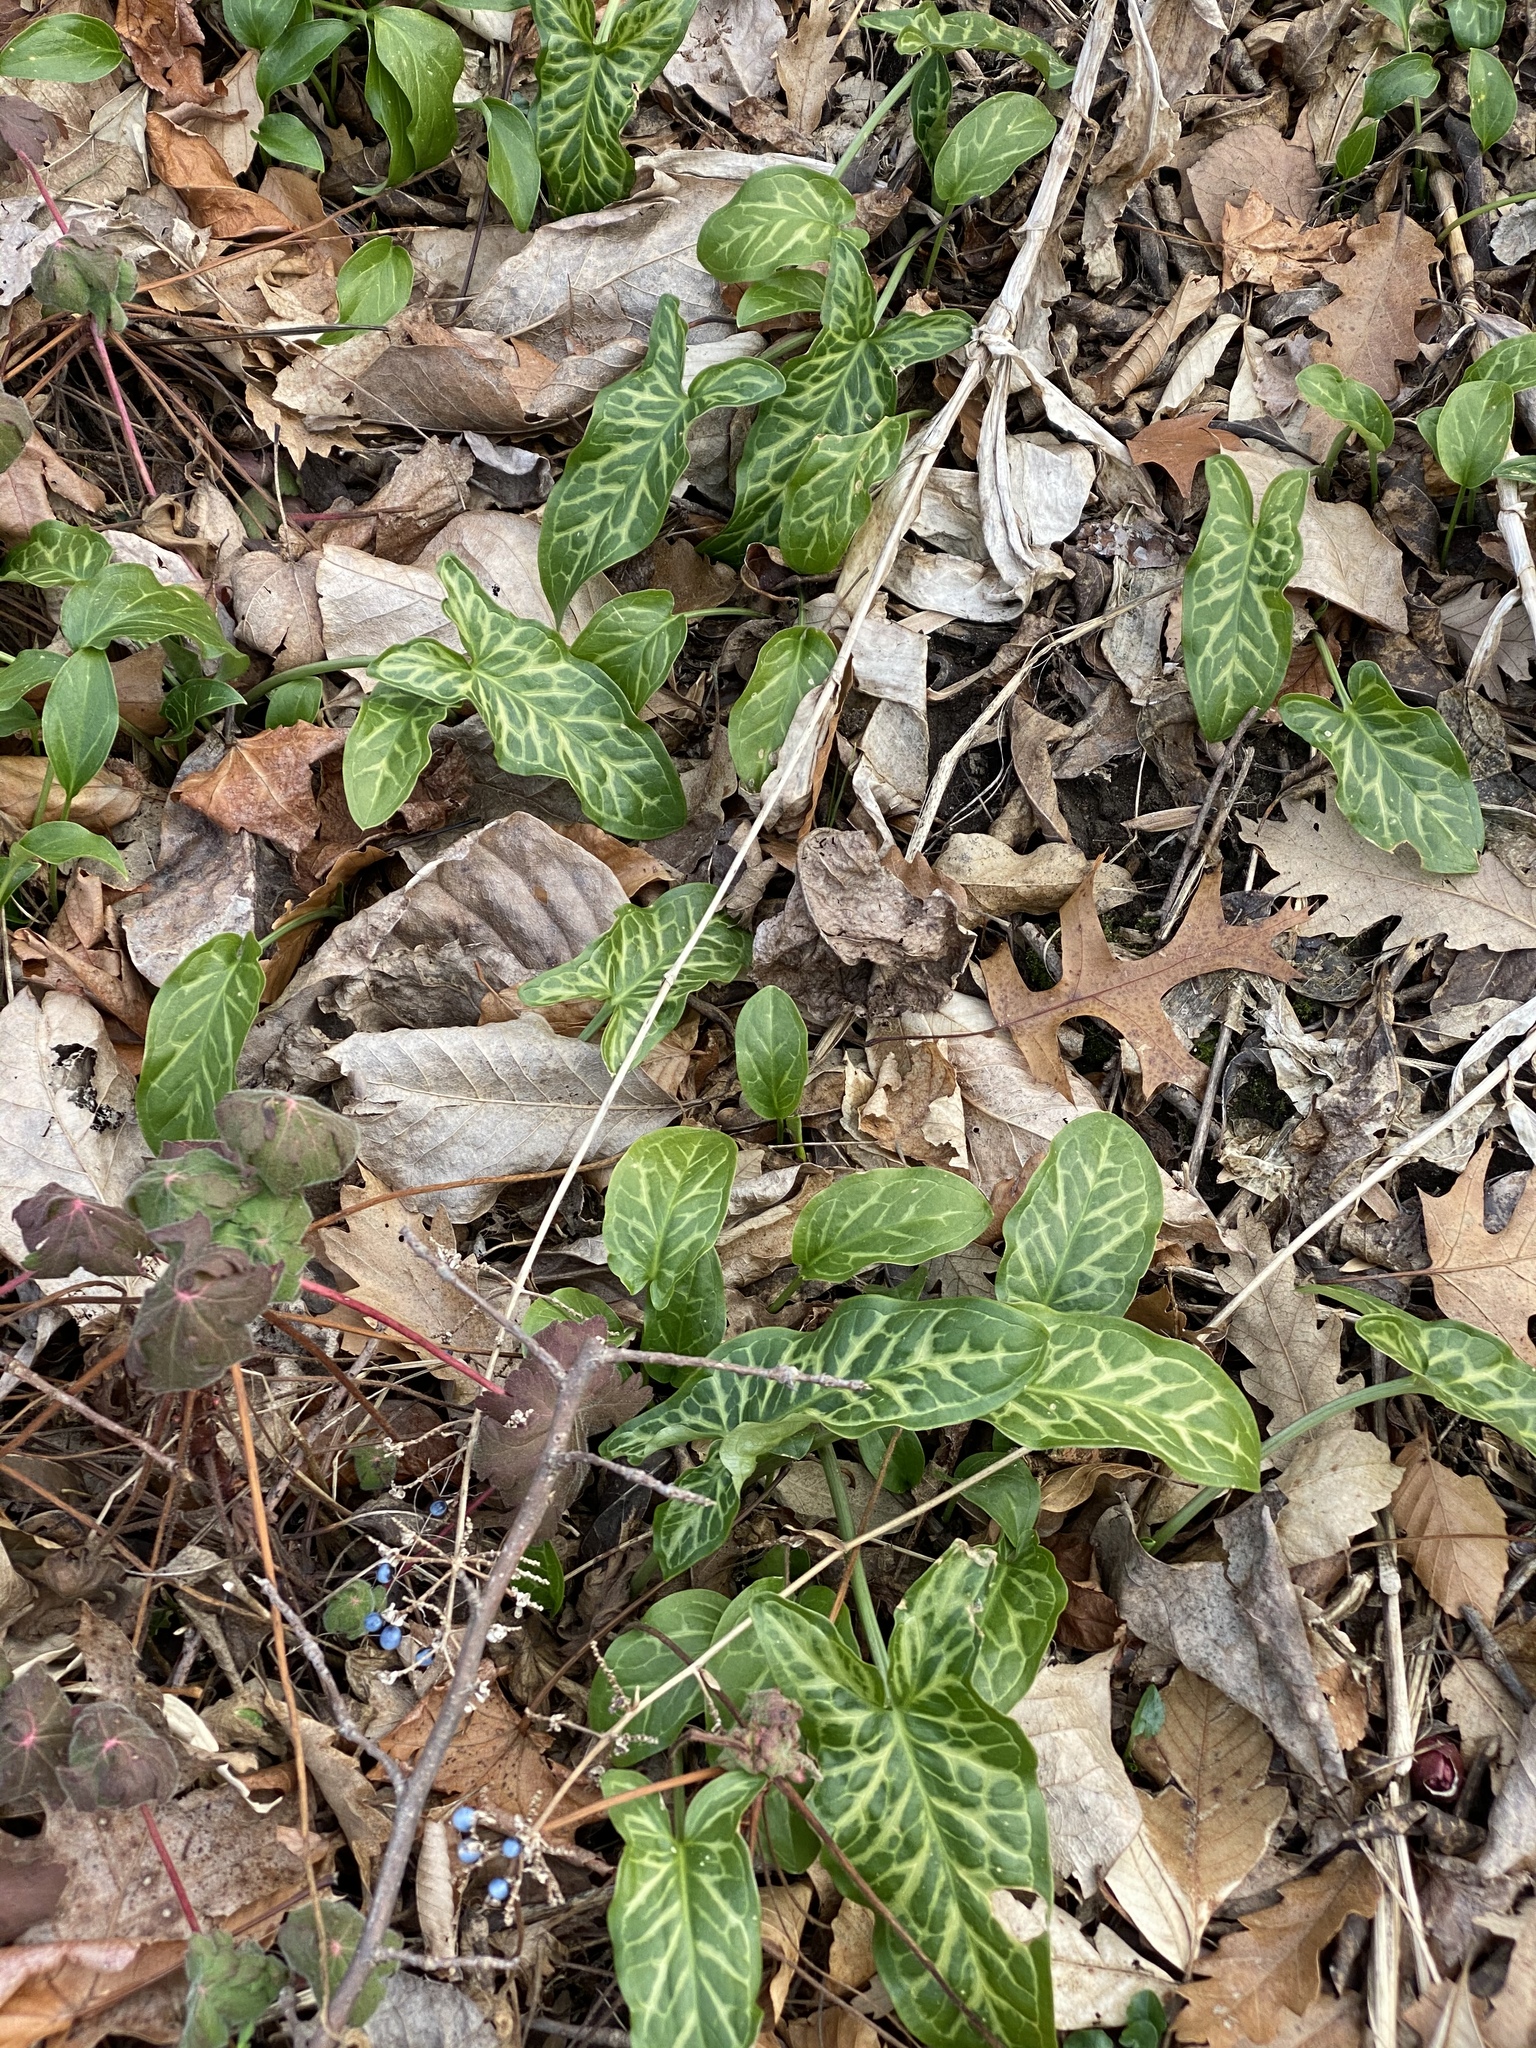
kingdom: Plantae
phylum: Tracheophyta
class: Liliopsida
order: Alismatales
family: Araceae
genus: Arum
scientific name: Arum italicum
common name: Italian lords-and-ladies
